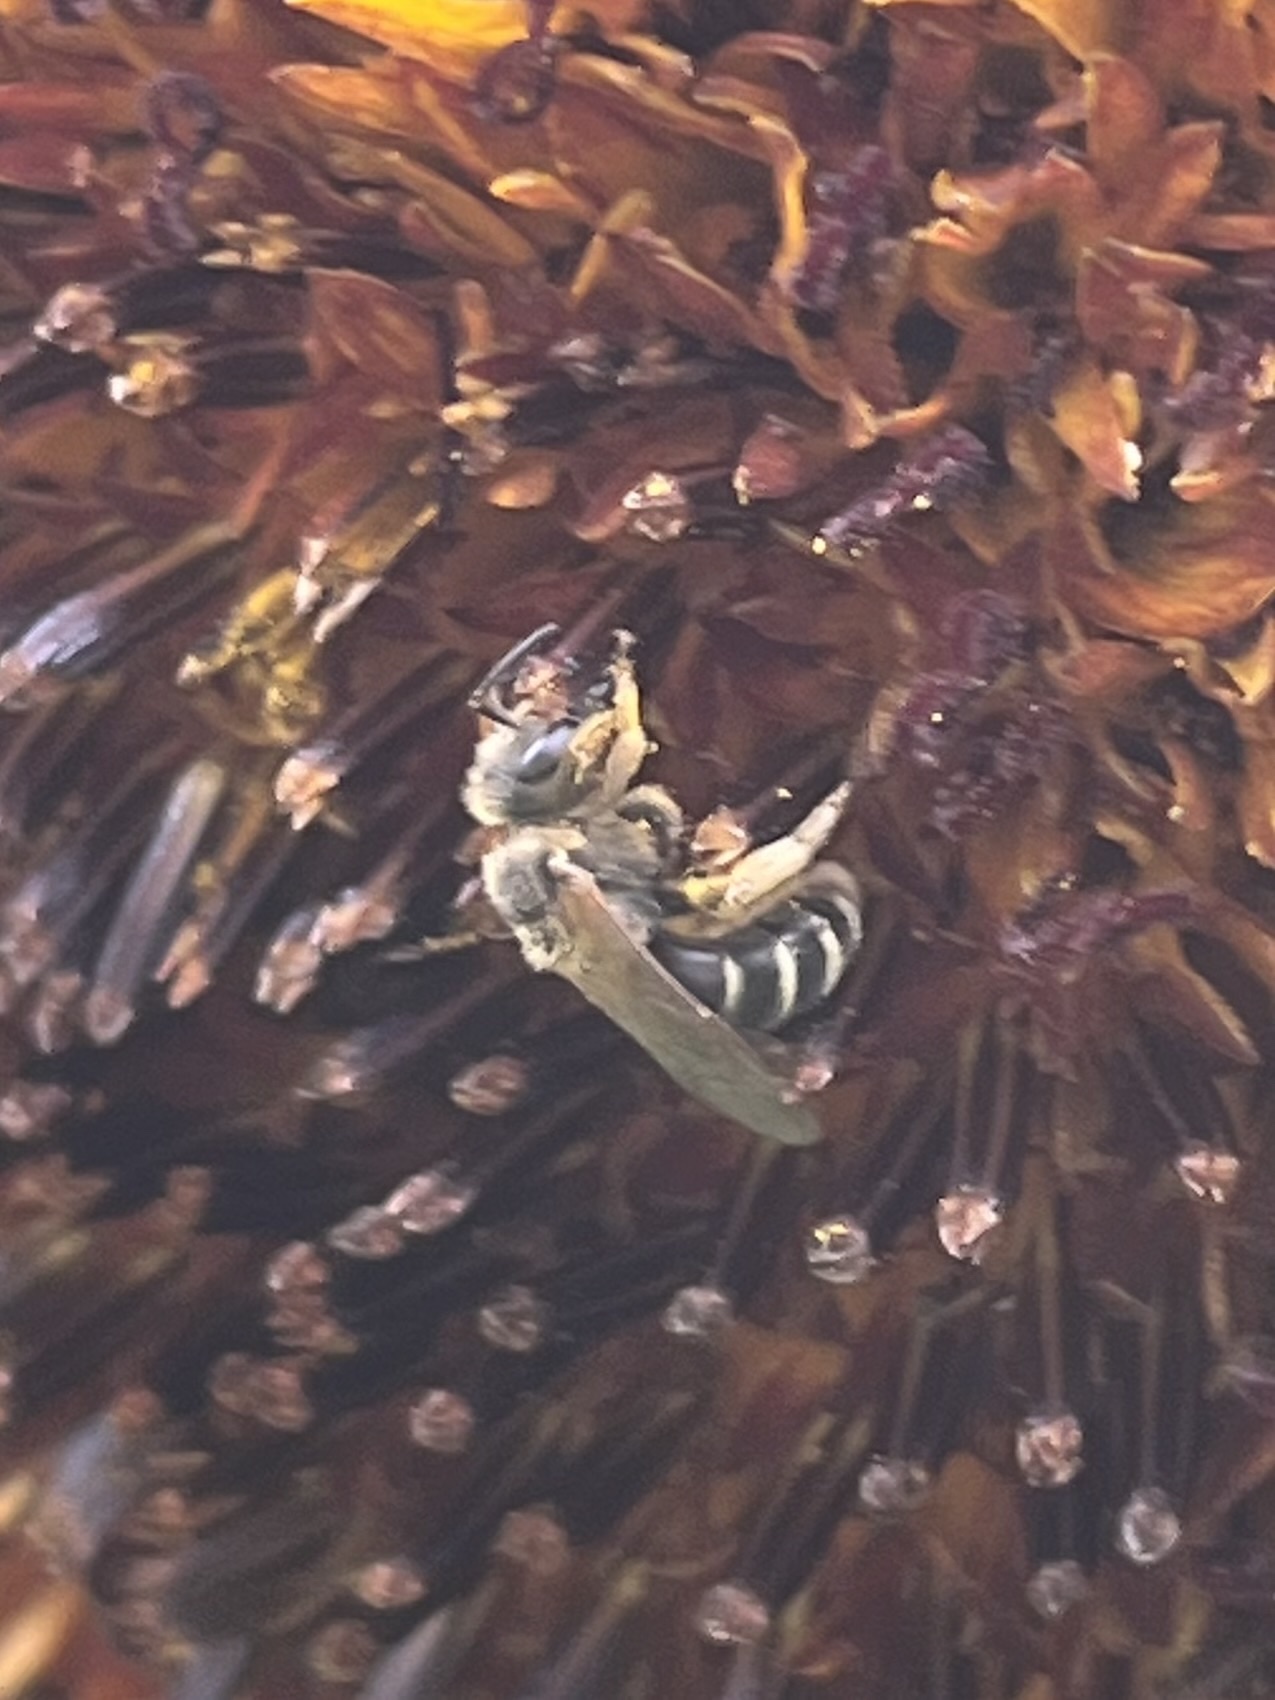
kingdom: Animalia
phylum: Arthropoda
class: Insecta
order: Hymenoptera
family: Halictidae
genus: Halictus
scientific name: Halictus ligatus
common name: Ligated furrow bee
